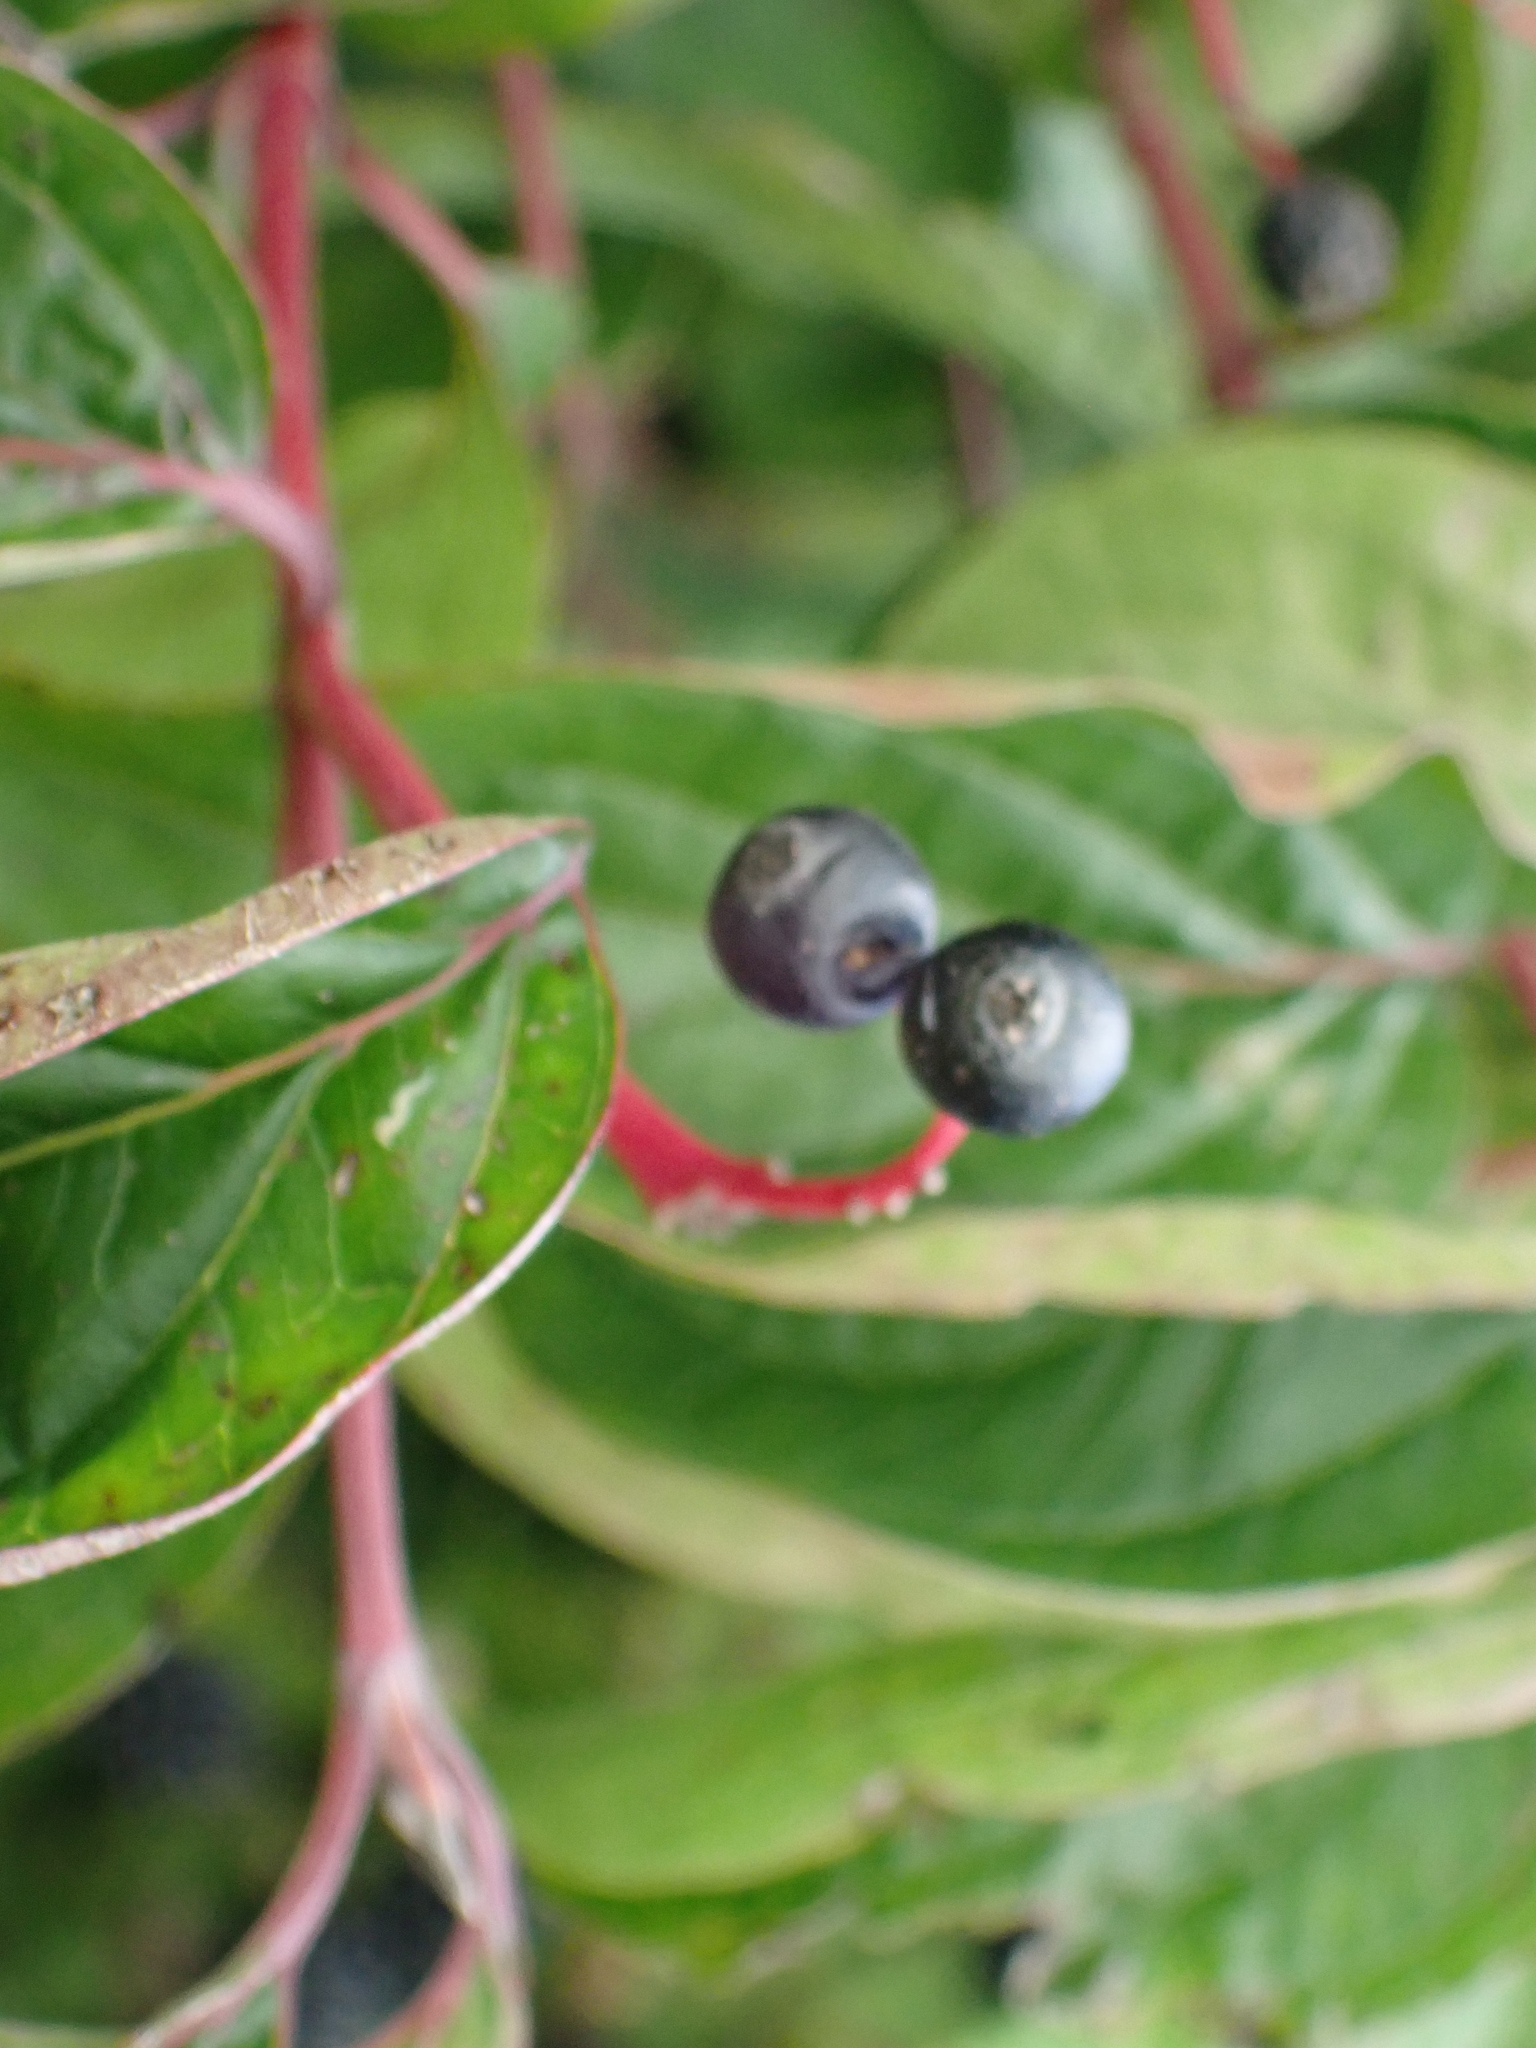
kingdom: Plantae
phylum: Tracheophyta
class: Magnoliopsida
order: Cornales
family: Cornaceae
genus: Cornus
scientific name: Cornus sanguinea
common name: Dogwood
